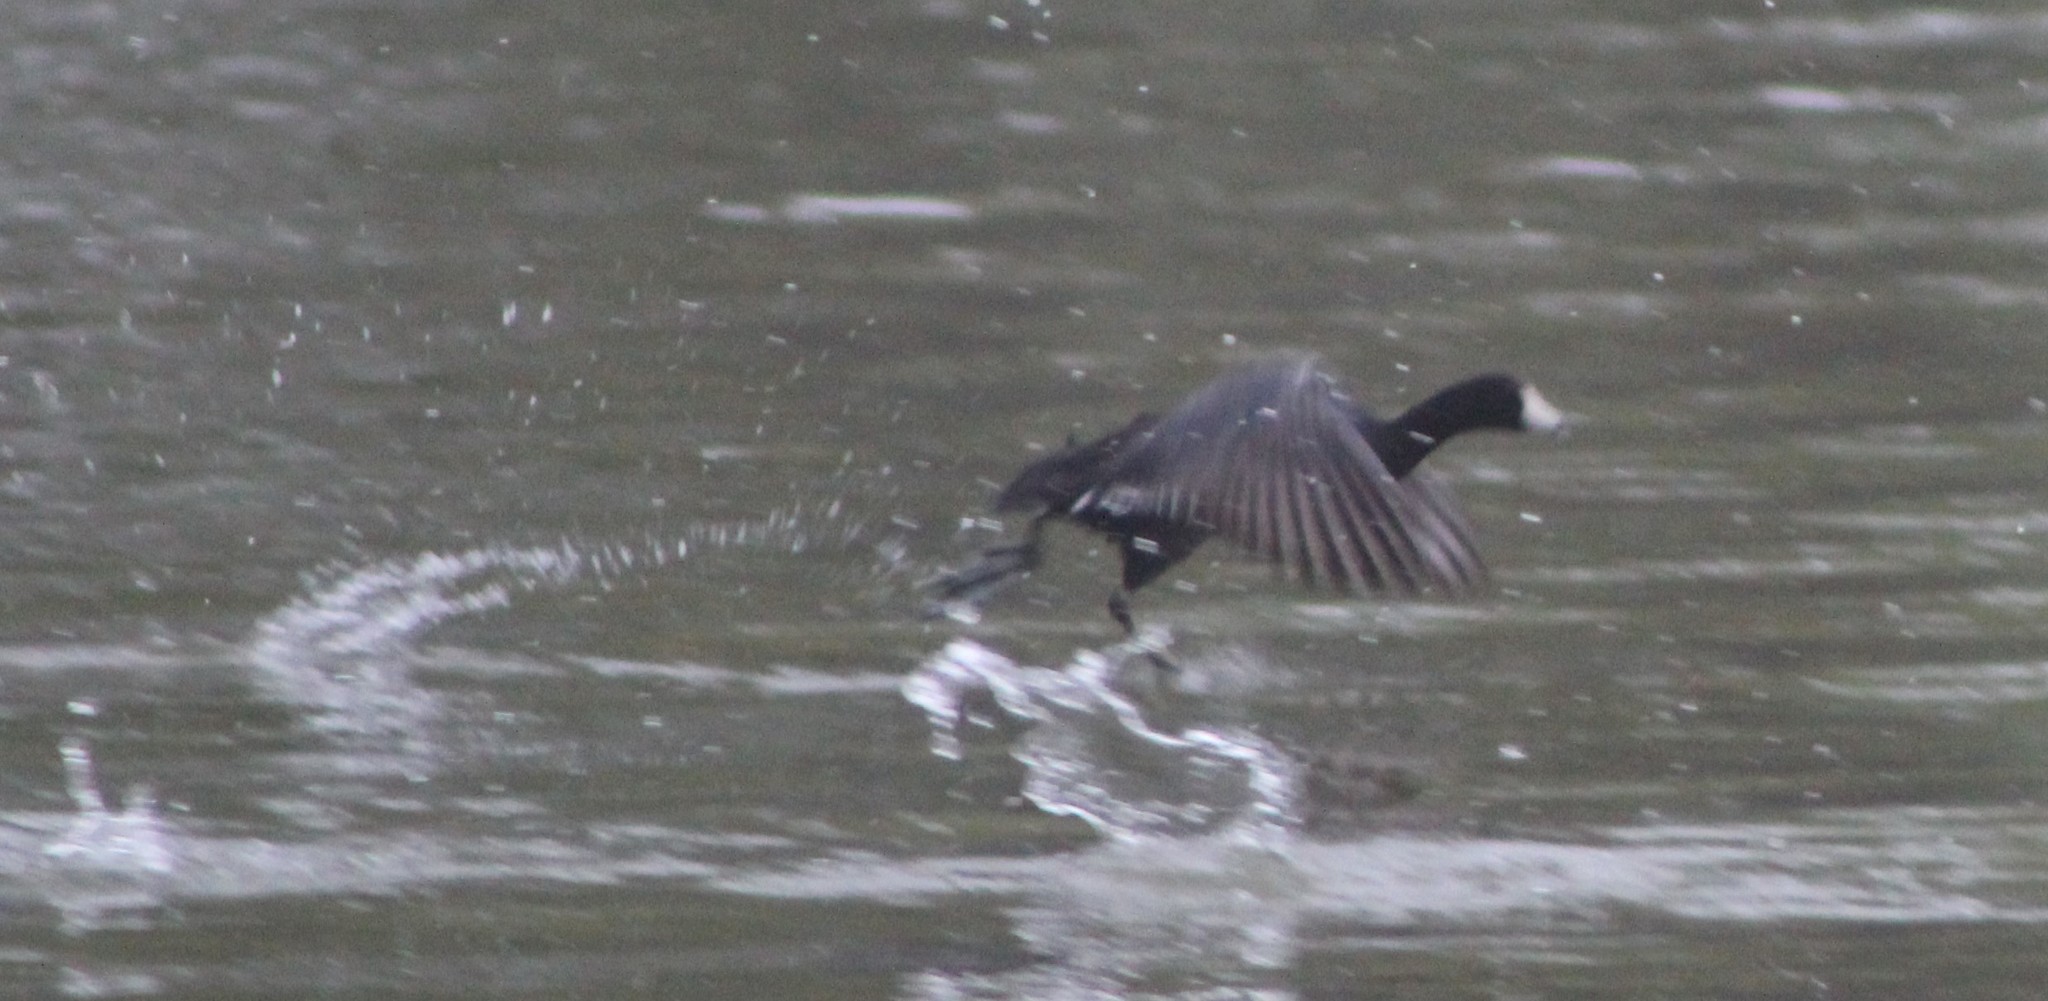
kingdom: Animalia
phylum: Chordata
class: Aves
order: Gruiformes
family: Rallidae
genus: Fulica
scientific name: Fulica americana
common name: American coot
